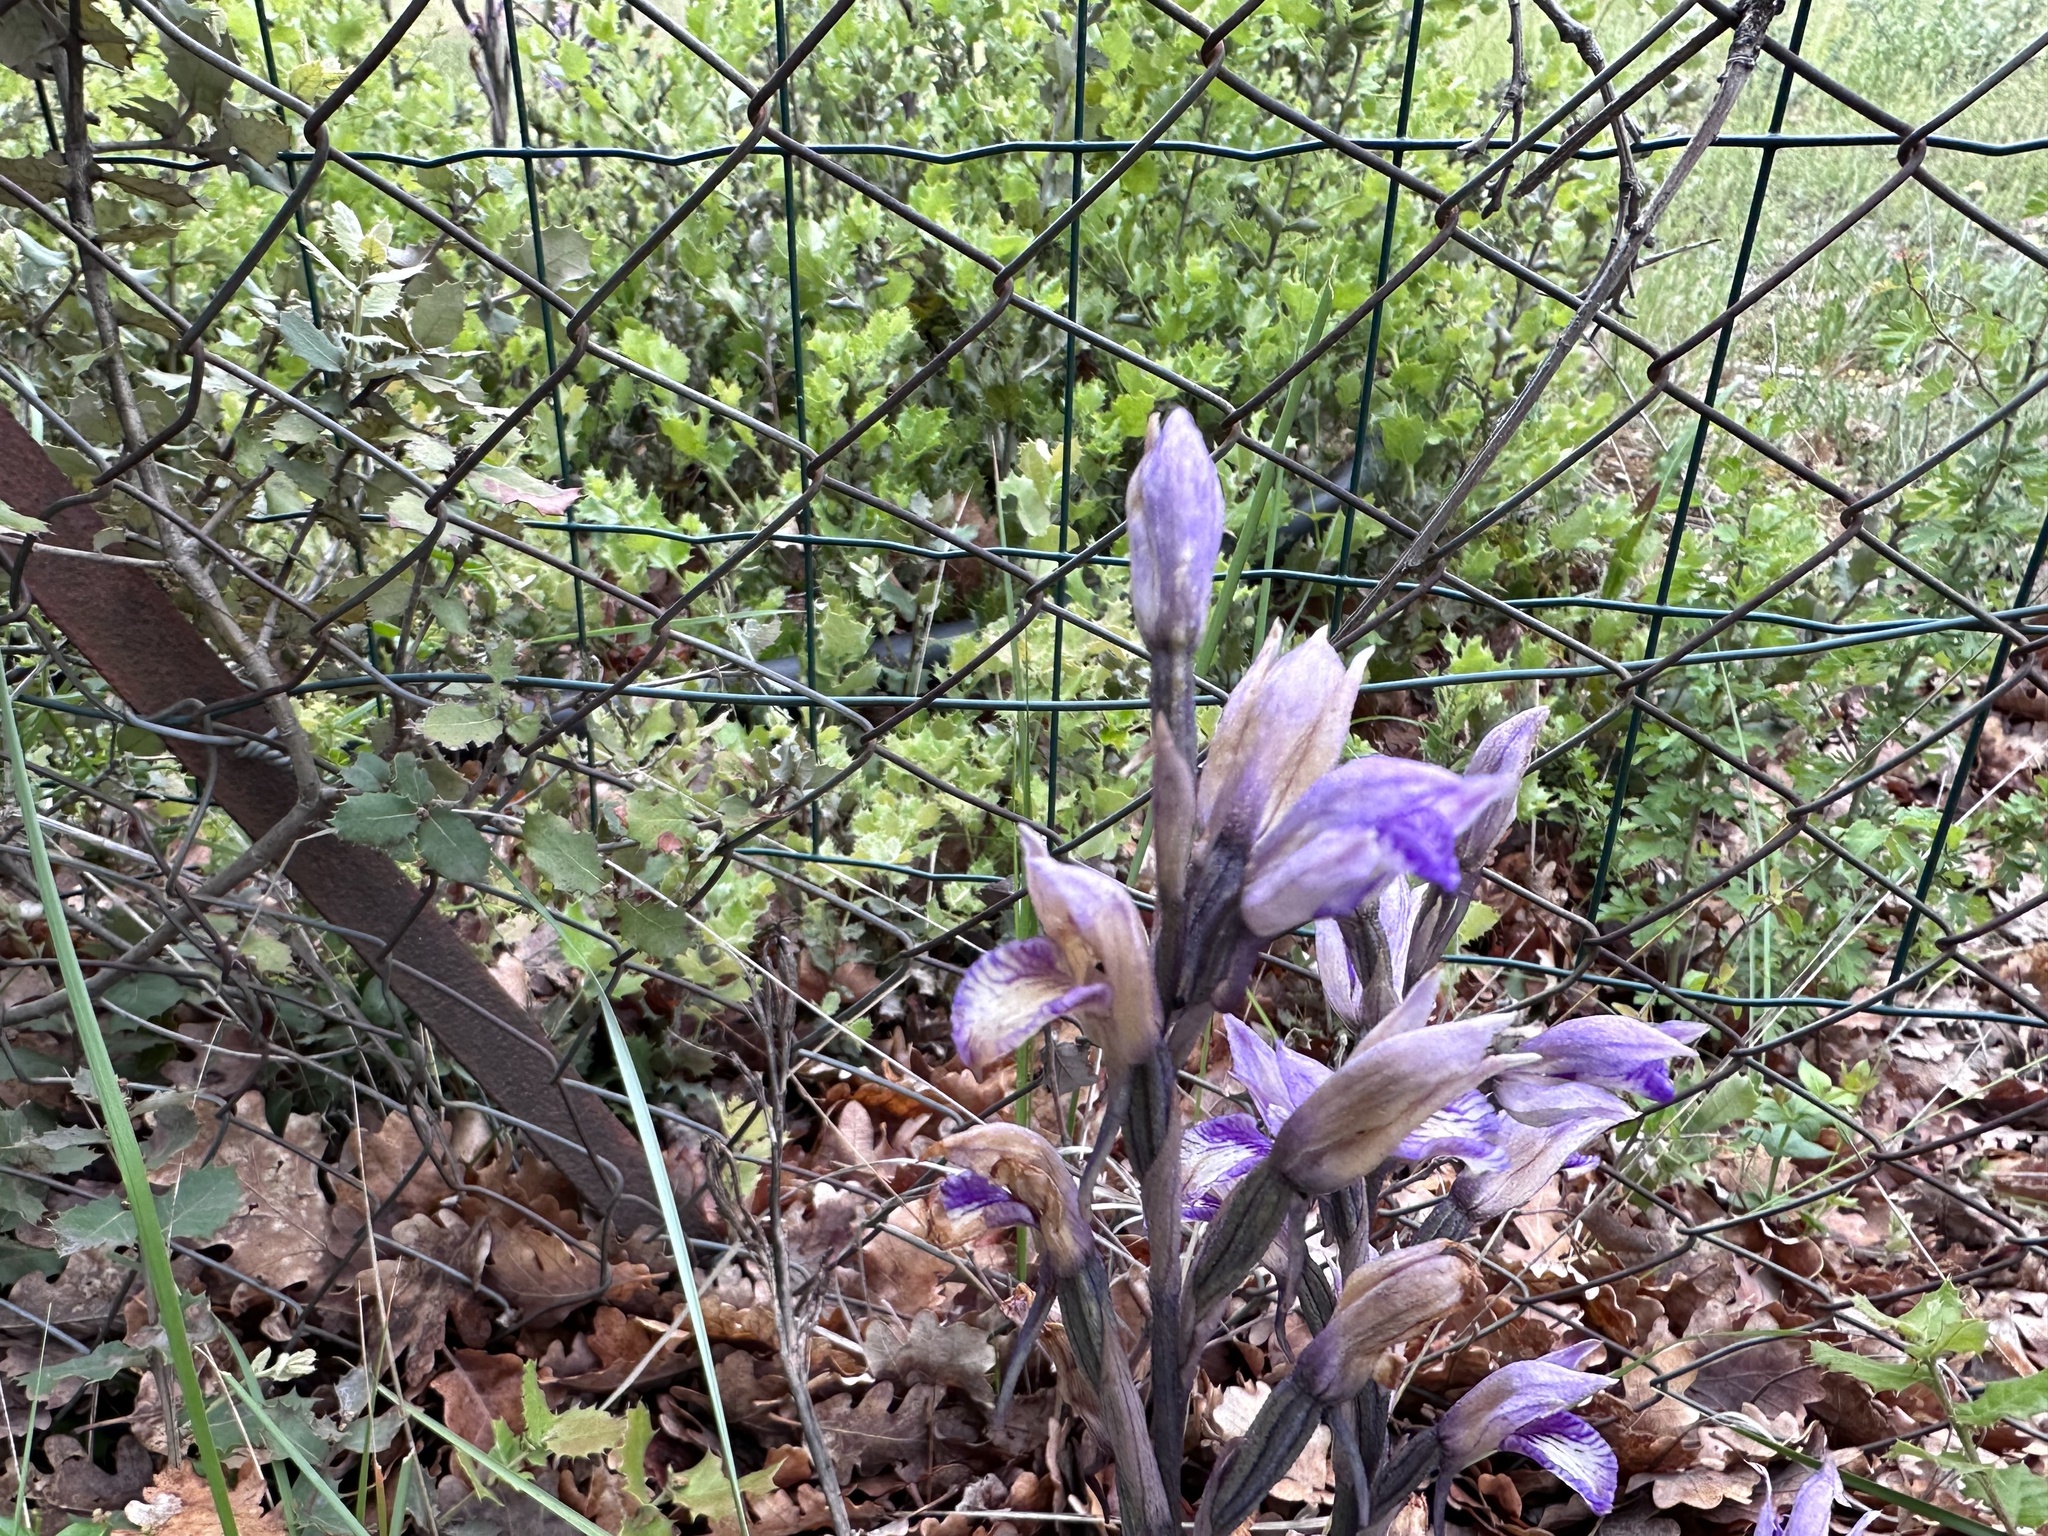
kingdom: Plantae
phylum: Tracheophyta
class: Liliopsida
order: Asparagales
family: Orchidaceae
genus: Limodorum
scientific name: Limodorum abortivum
